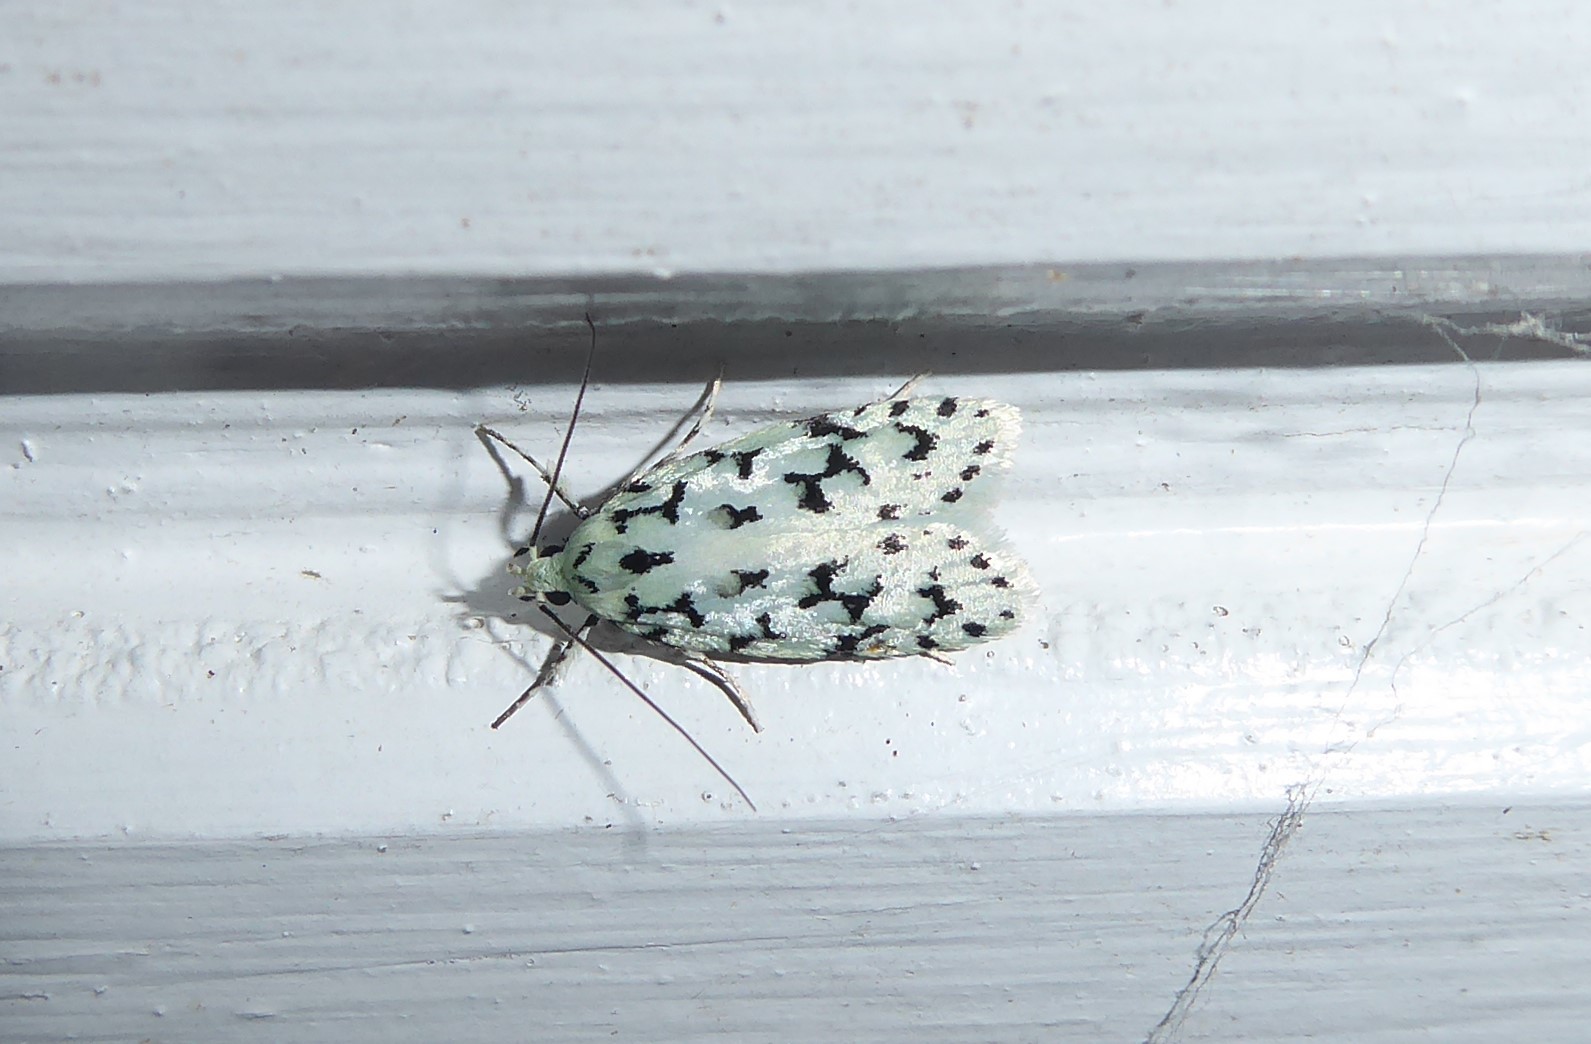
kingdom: Animalia
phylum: Arthropoda
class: Insecta
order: Lepidoptera
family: Oecophoridae
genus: Izatha
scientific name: Izatha huttoni
